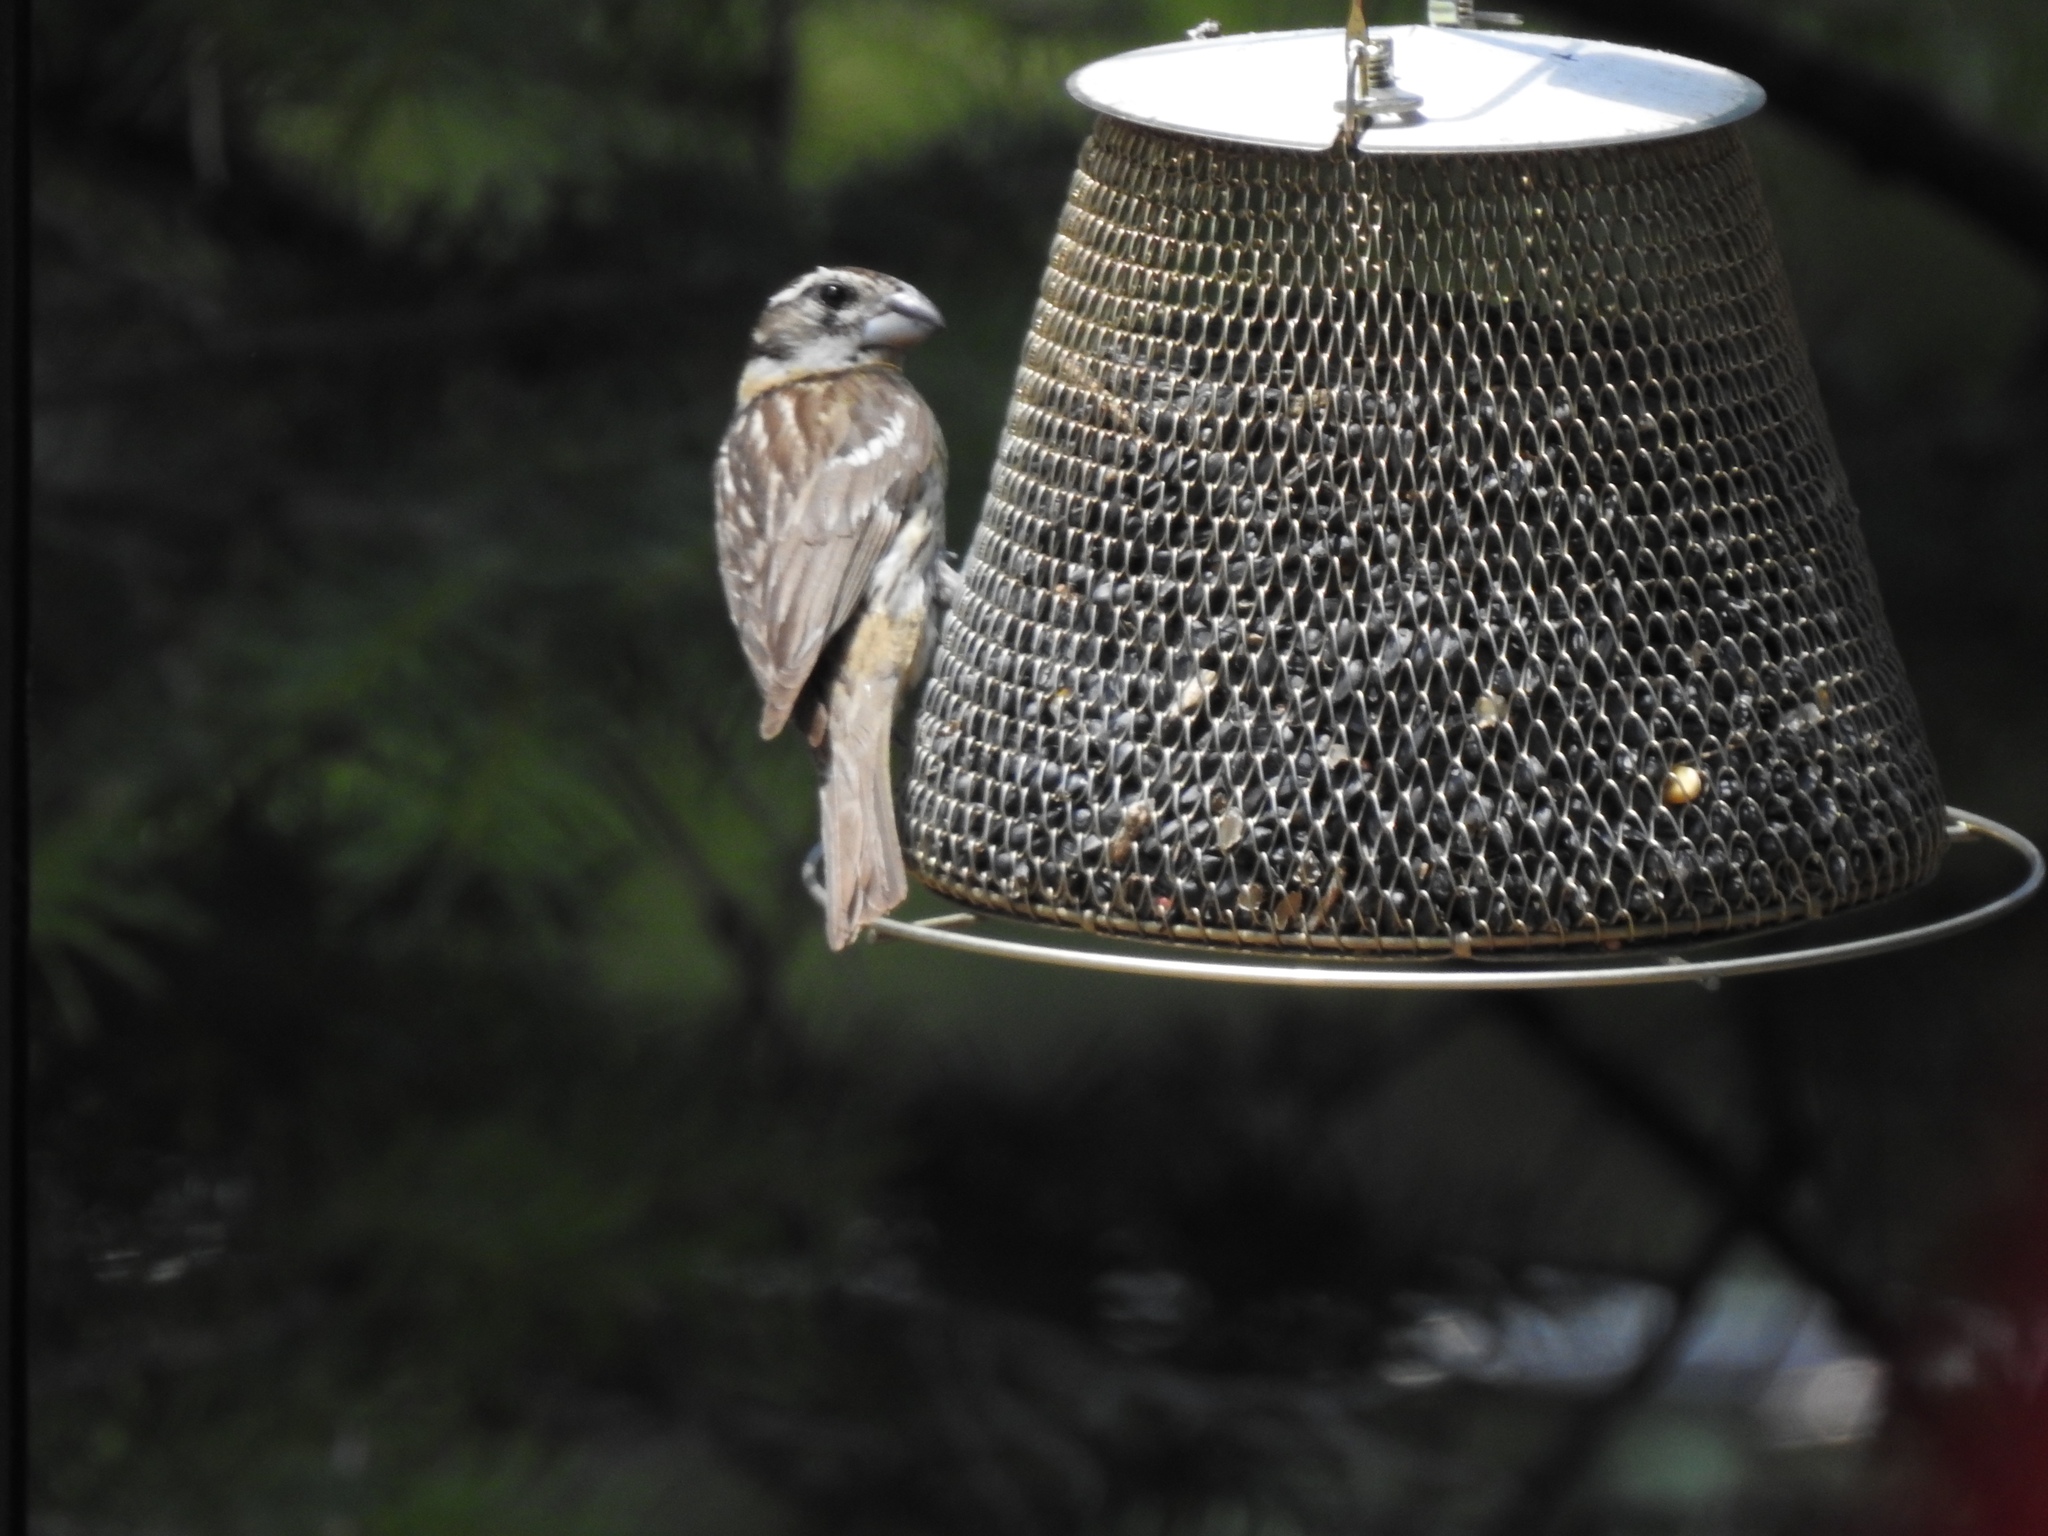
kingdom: Animalia
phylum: Chordata
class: Aves
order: Passeriformes
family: Cardinalidae
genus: Pheucticus
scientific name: Pheucticus melanocephalus
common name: Black-headed grosbeak
